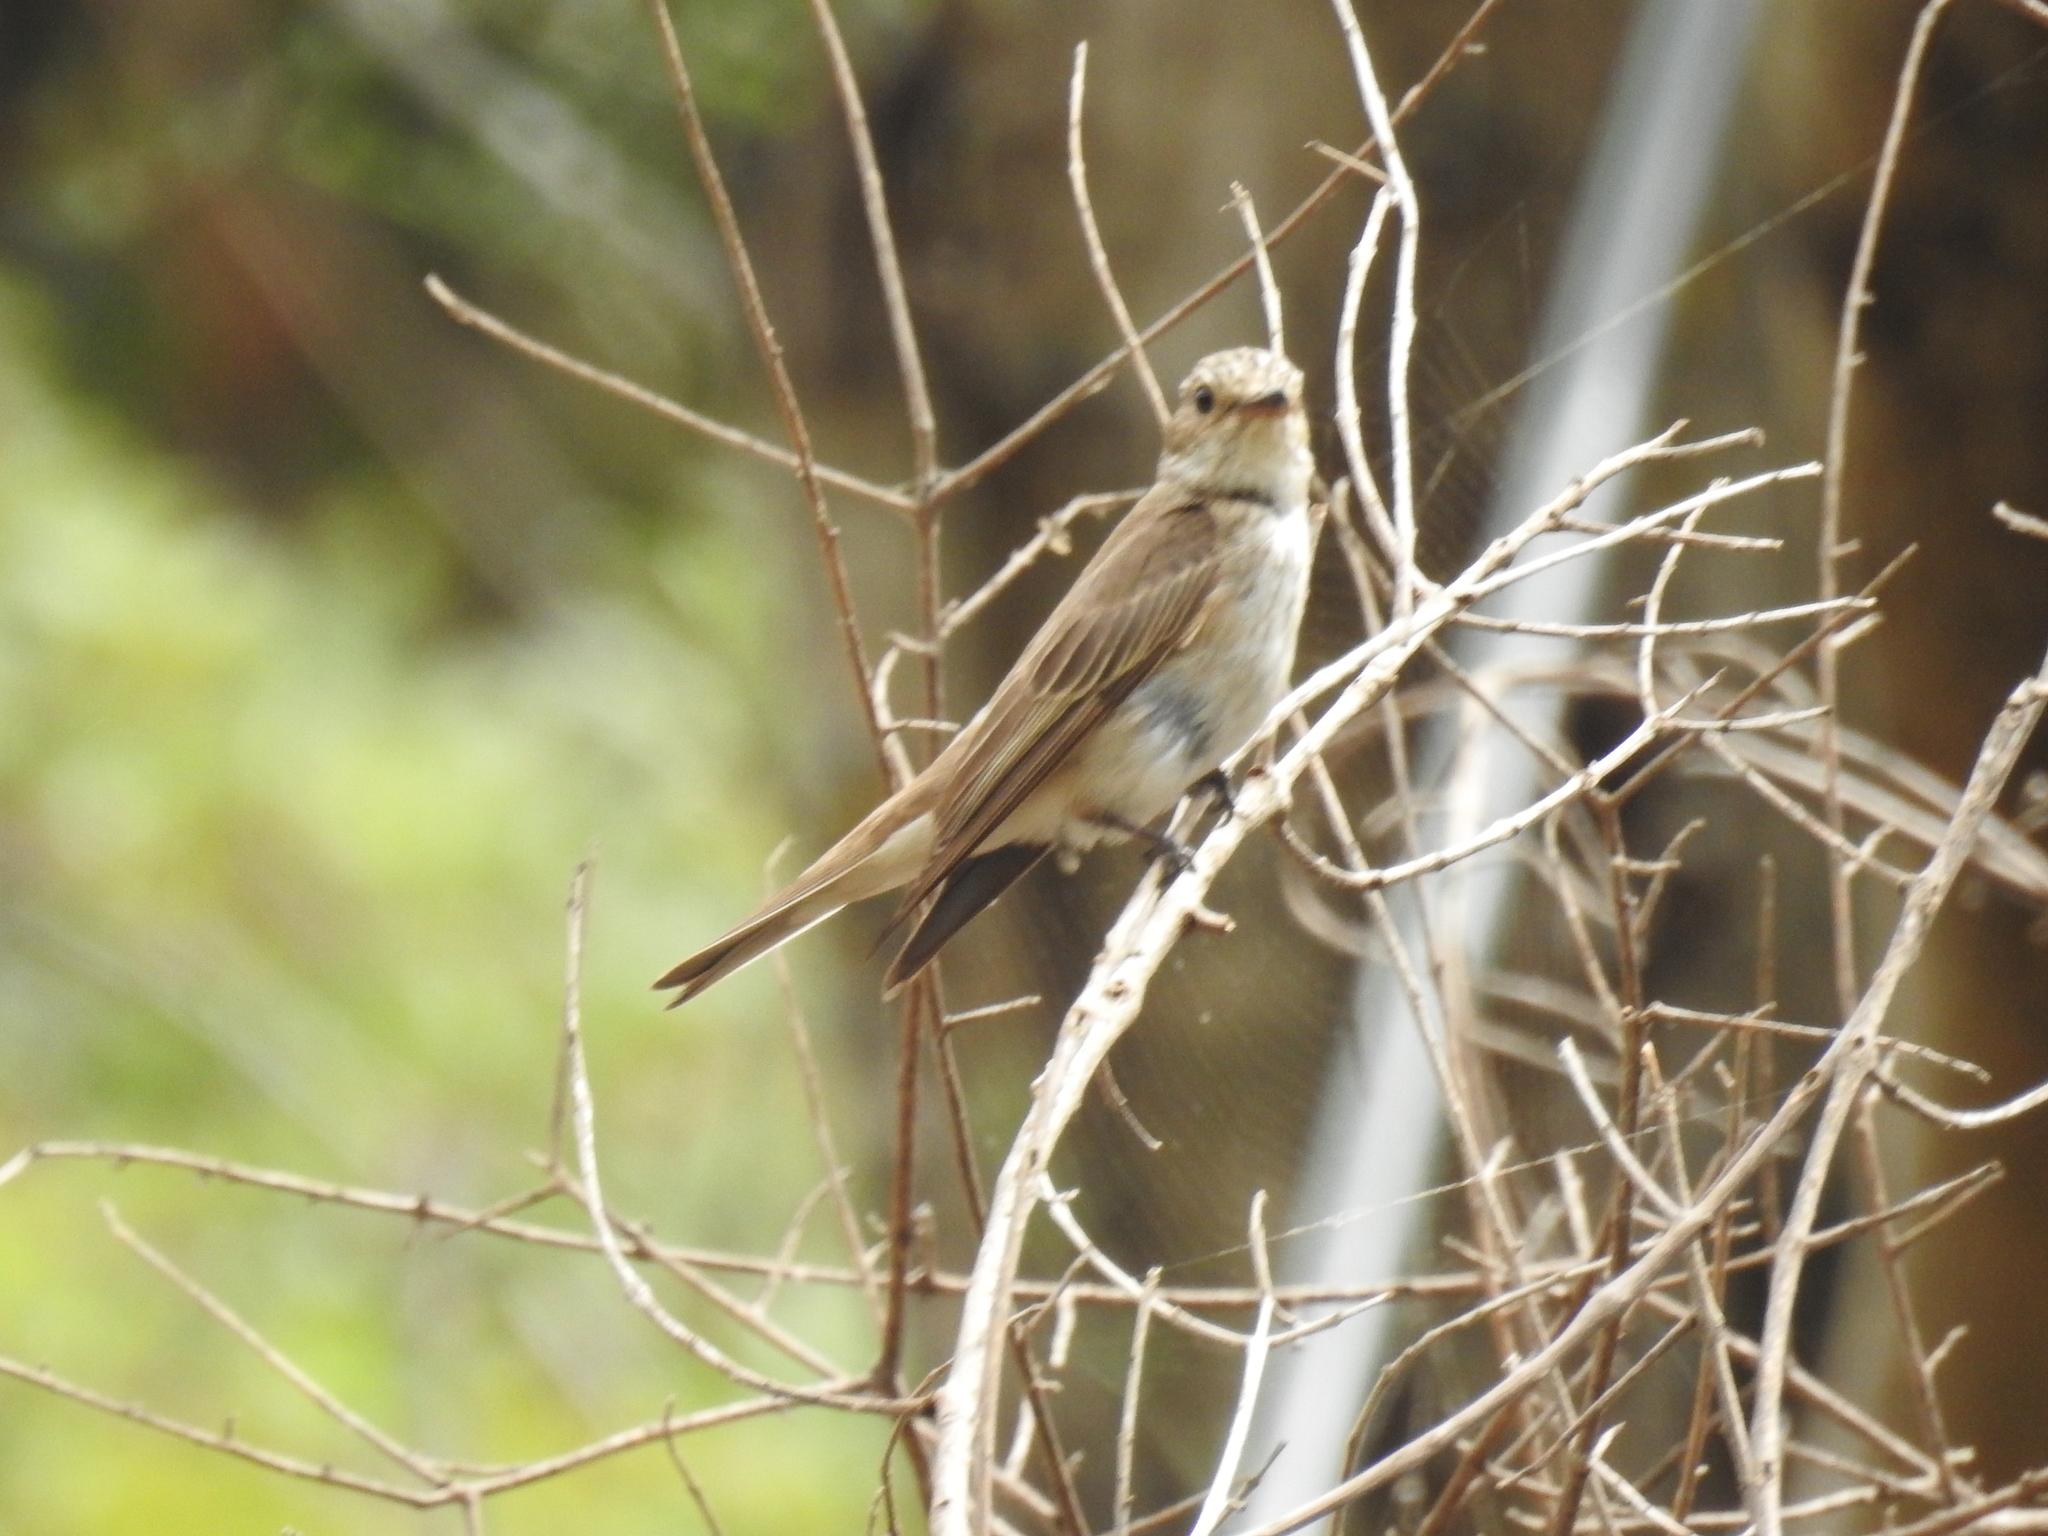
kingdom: Animalia
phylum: Chordata
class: Aves
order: Passeriformes
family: Muscicapidae
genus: Muscicapa
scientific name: Muscicapa striata
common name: Spotted flycatcher
